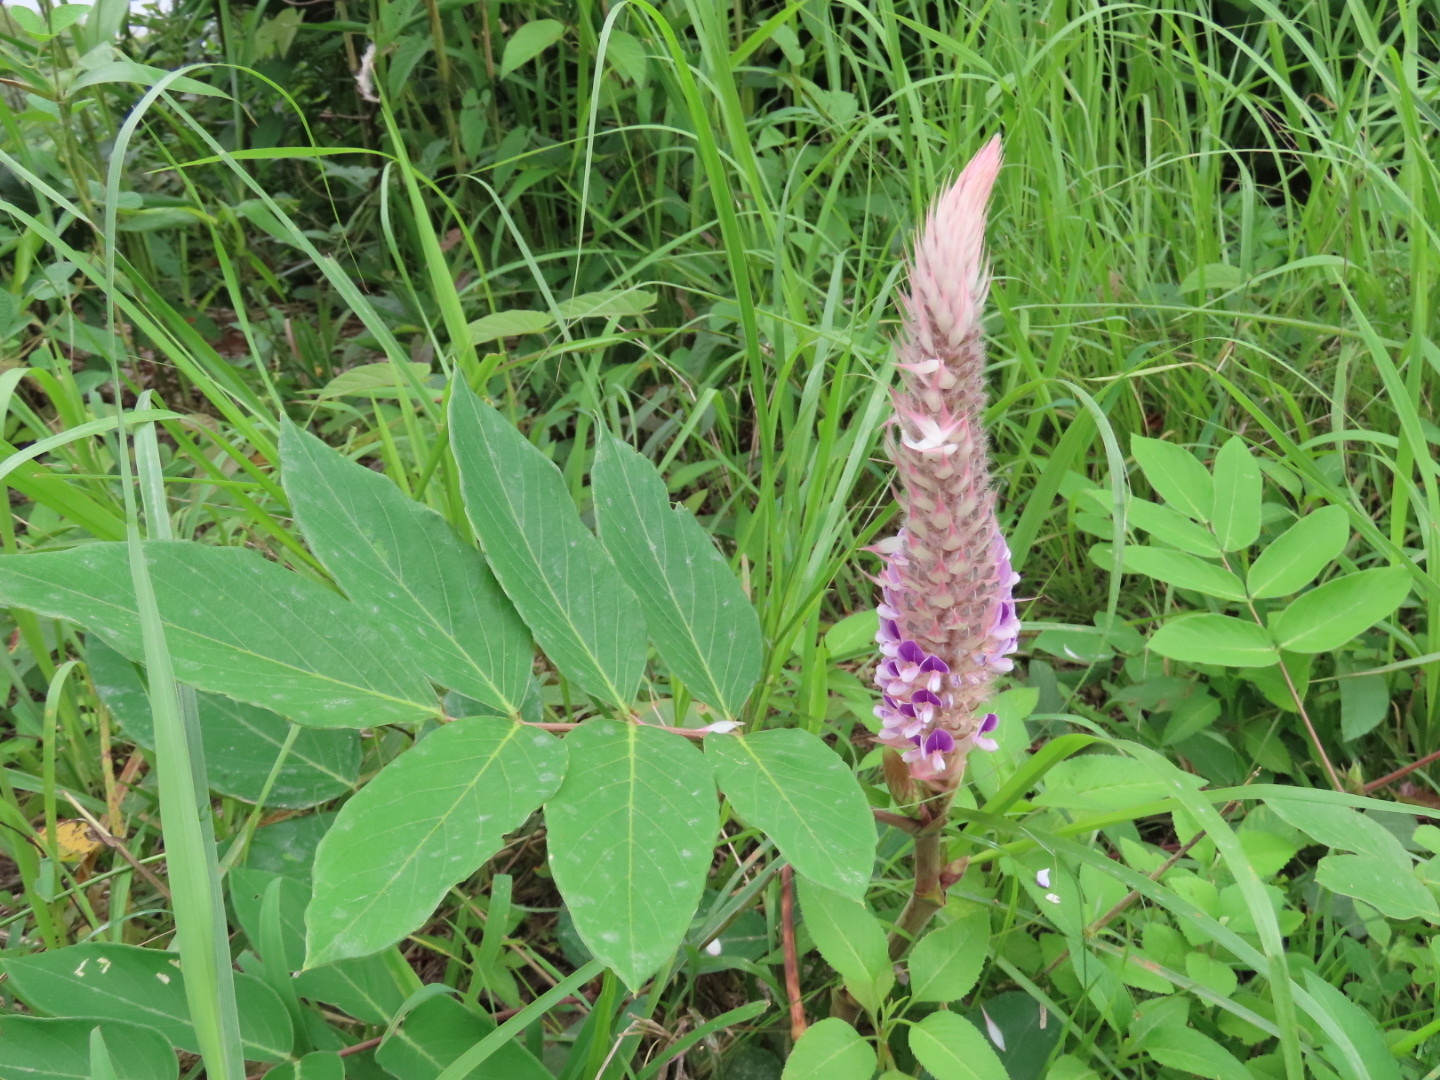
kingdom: Plantae
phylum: Tracheophyta
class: Magnoliopsida
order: Fabales
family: Fabaceae
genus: Uraria
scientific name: Uraria crinita
